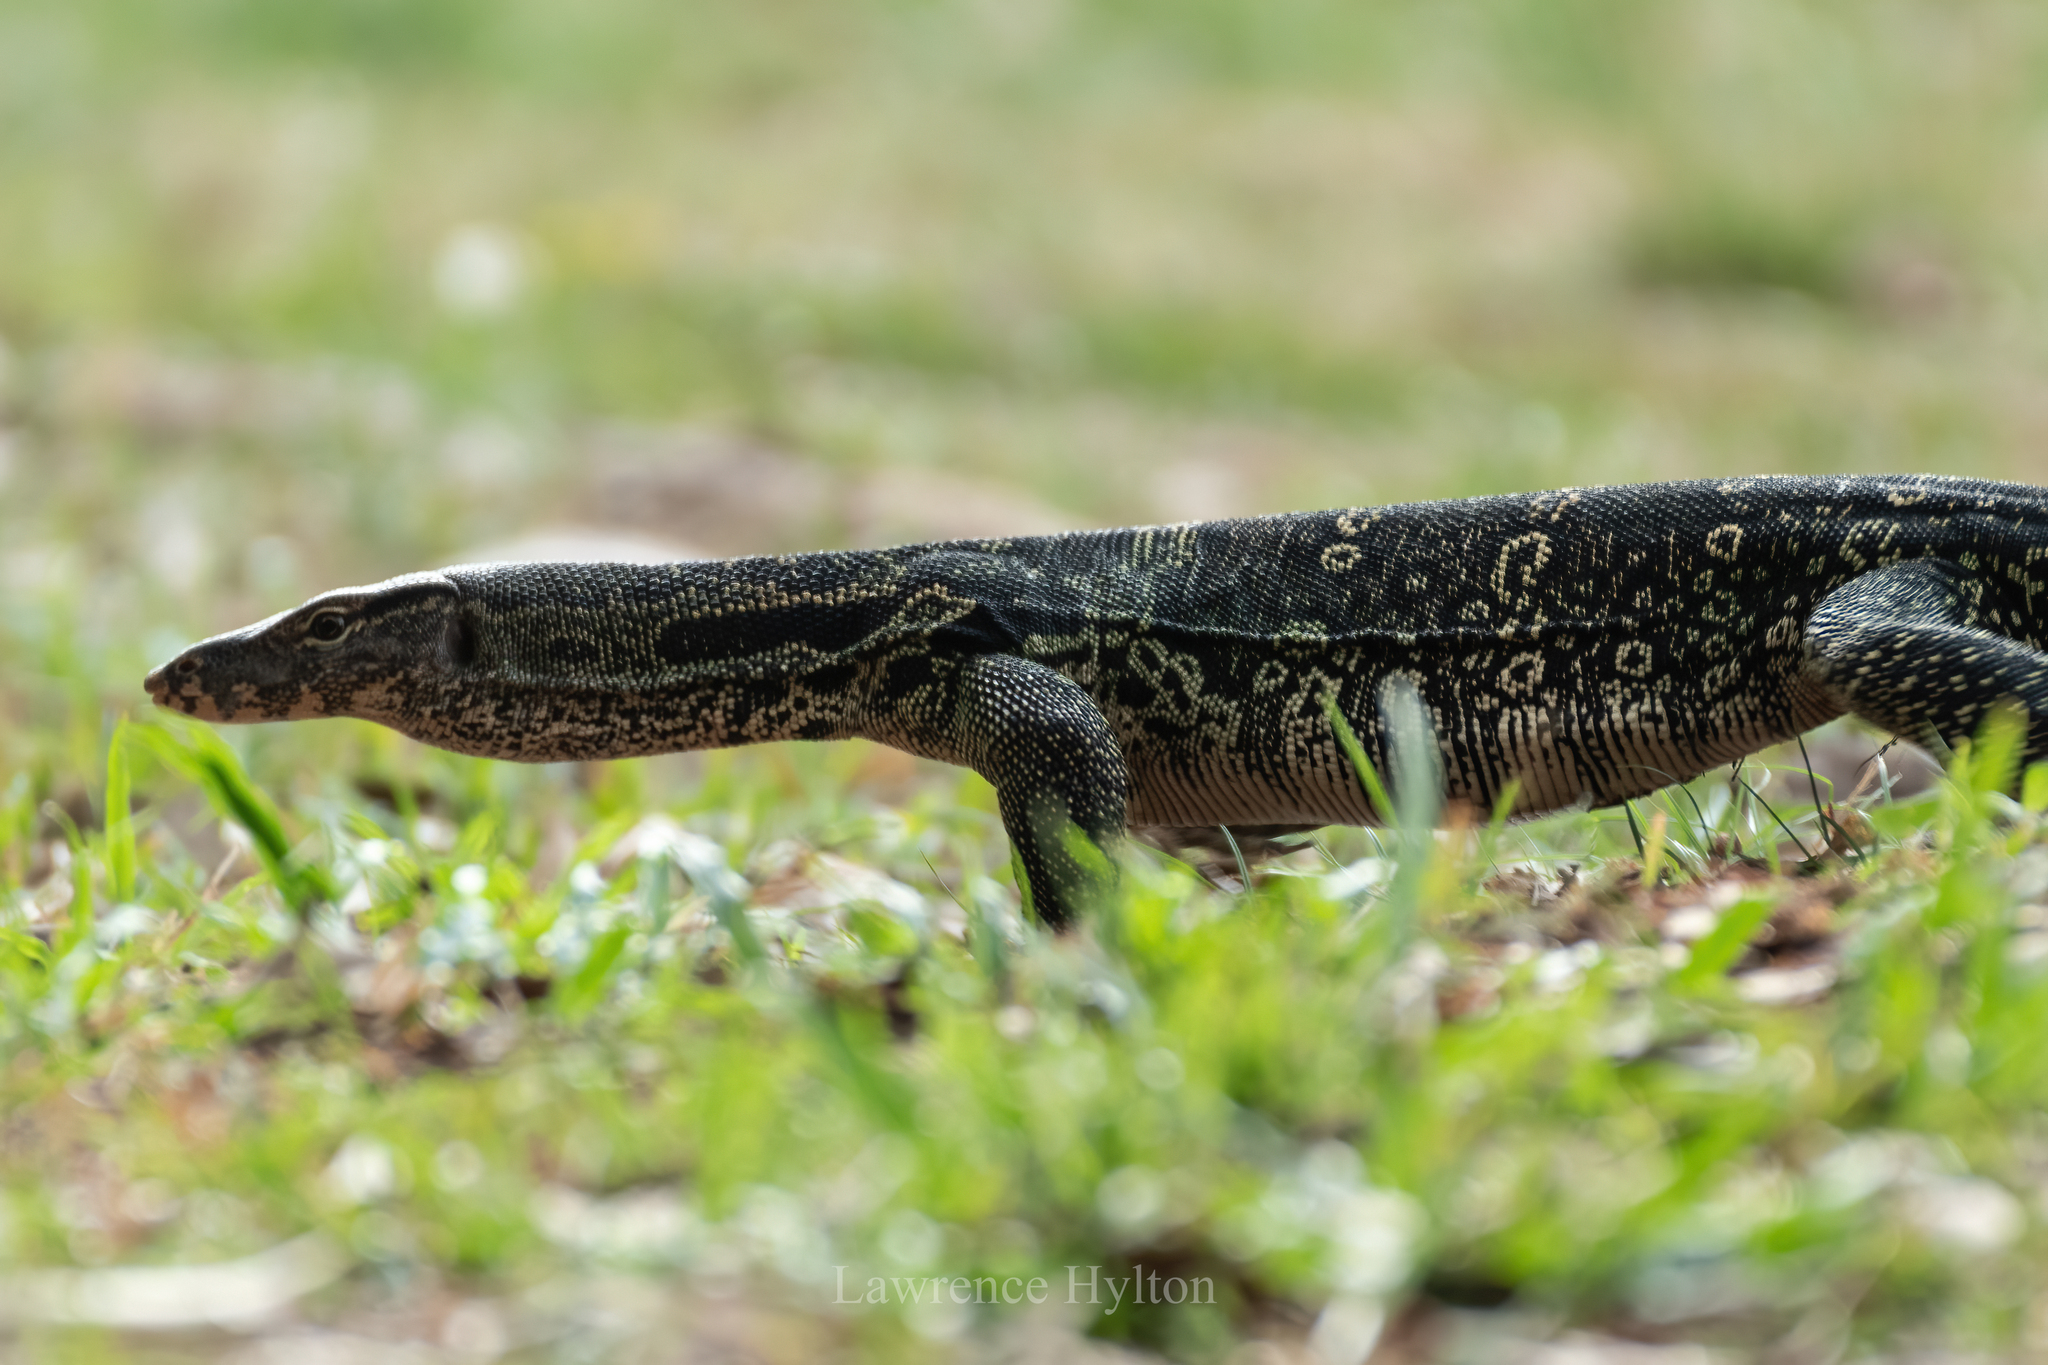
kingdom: Animalia
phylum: Chordata
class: Squamata
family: Varanidae
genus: Varanus
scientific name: Varanus salvator
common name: Common water monitor
